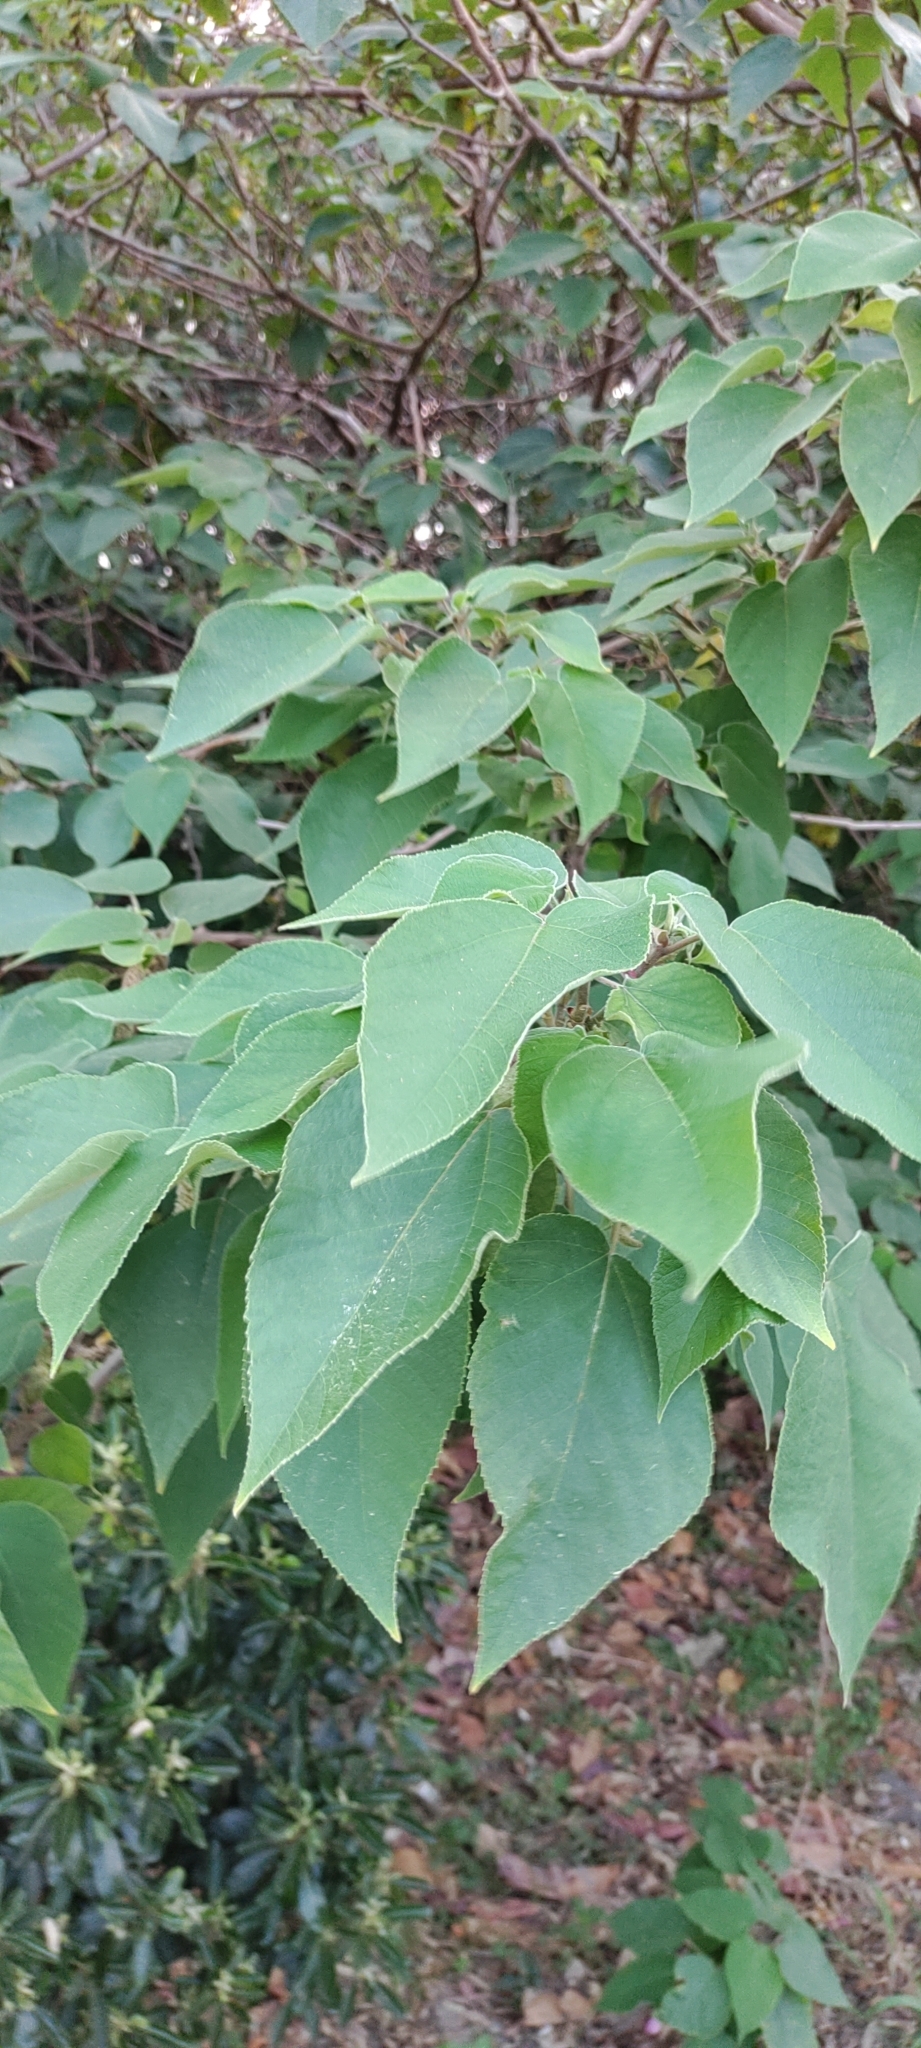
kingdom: Plantae
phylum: Tracheophyta
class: Magnoliopsida
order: Rosales
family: Moraceae
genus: Broussonetia
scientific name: Broussonetia papyrifera
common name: Paper mulberry
